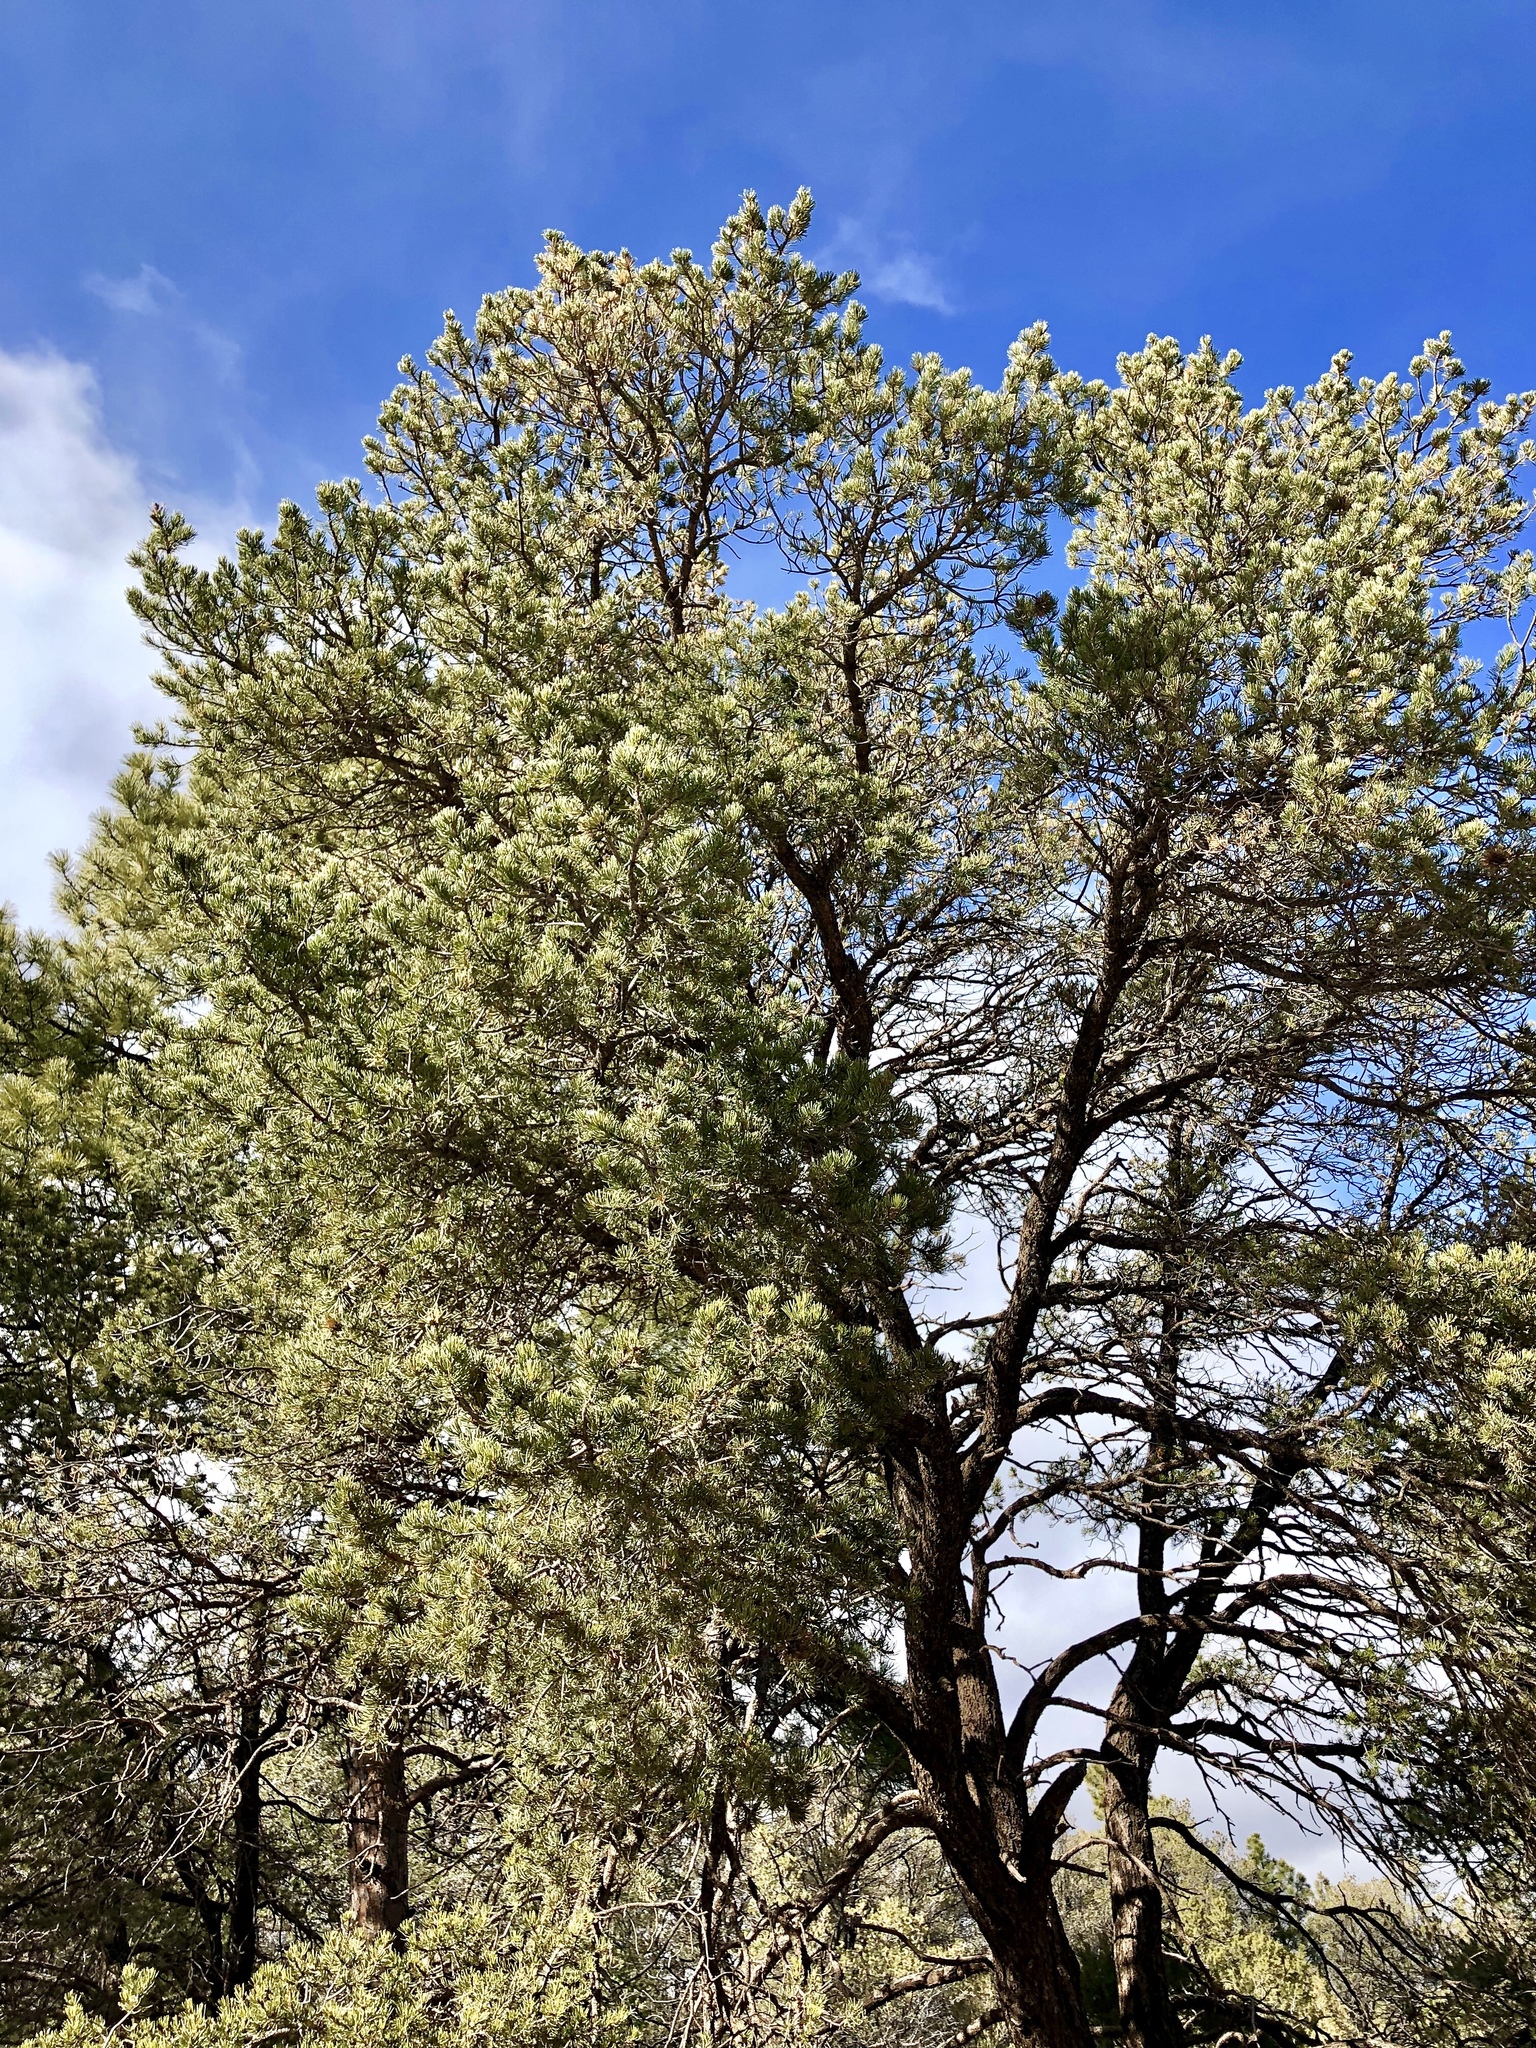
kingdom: Plantae
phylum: Tracheophyta
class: Pinopsida
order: Pinales
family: Pinaceae
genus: Pinus
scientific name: Pinus edulis
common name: Colorado pinyon
